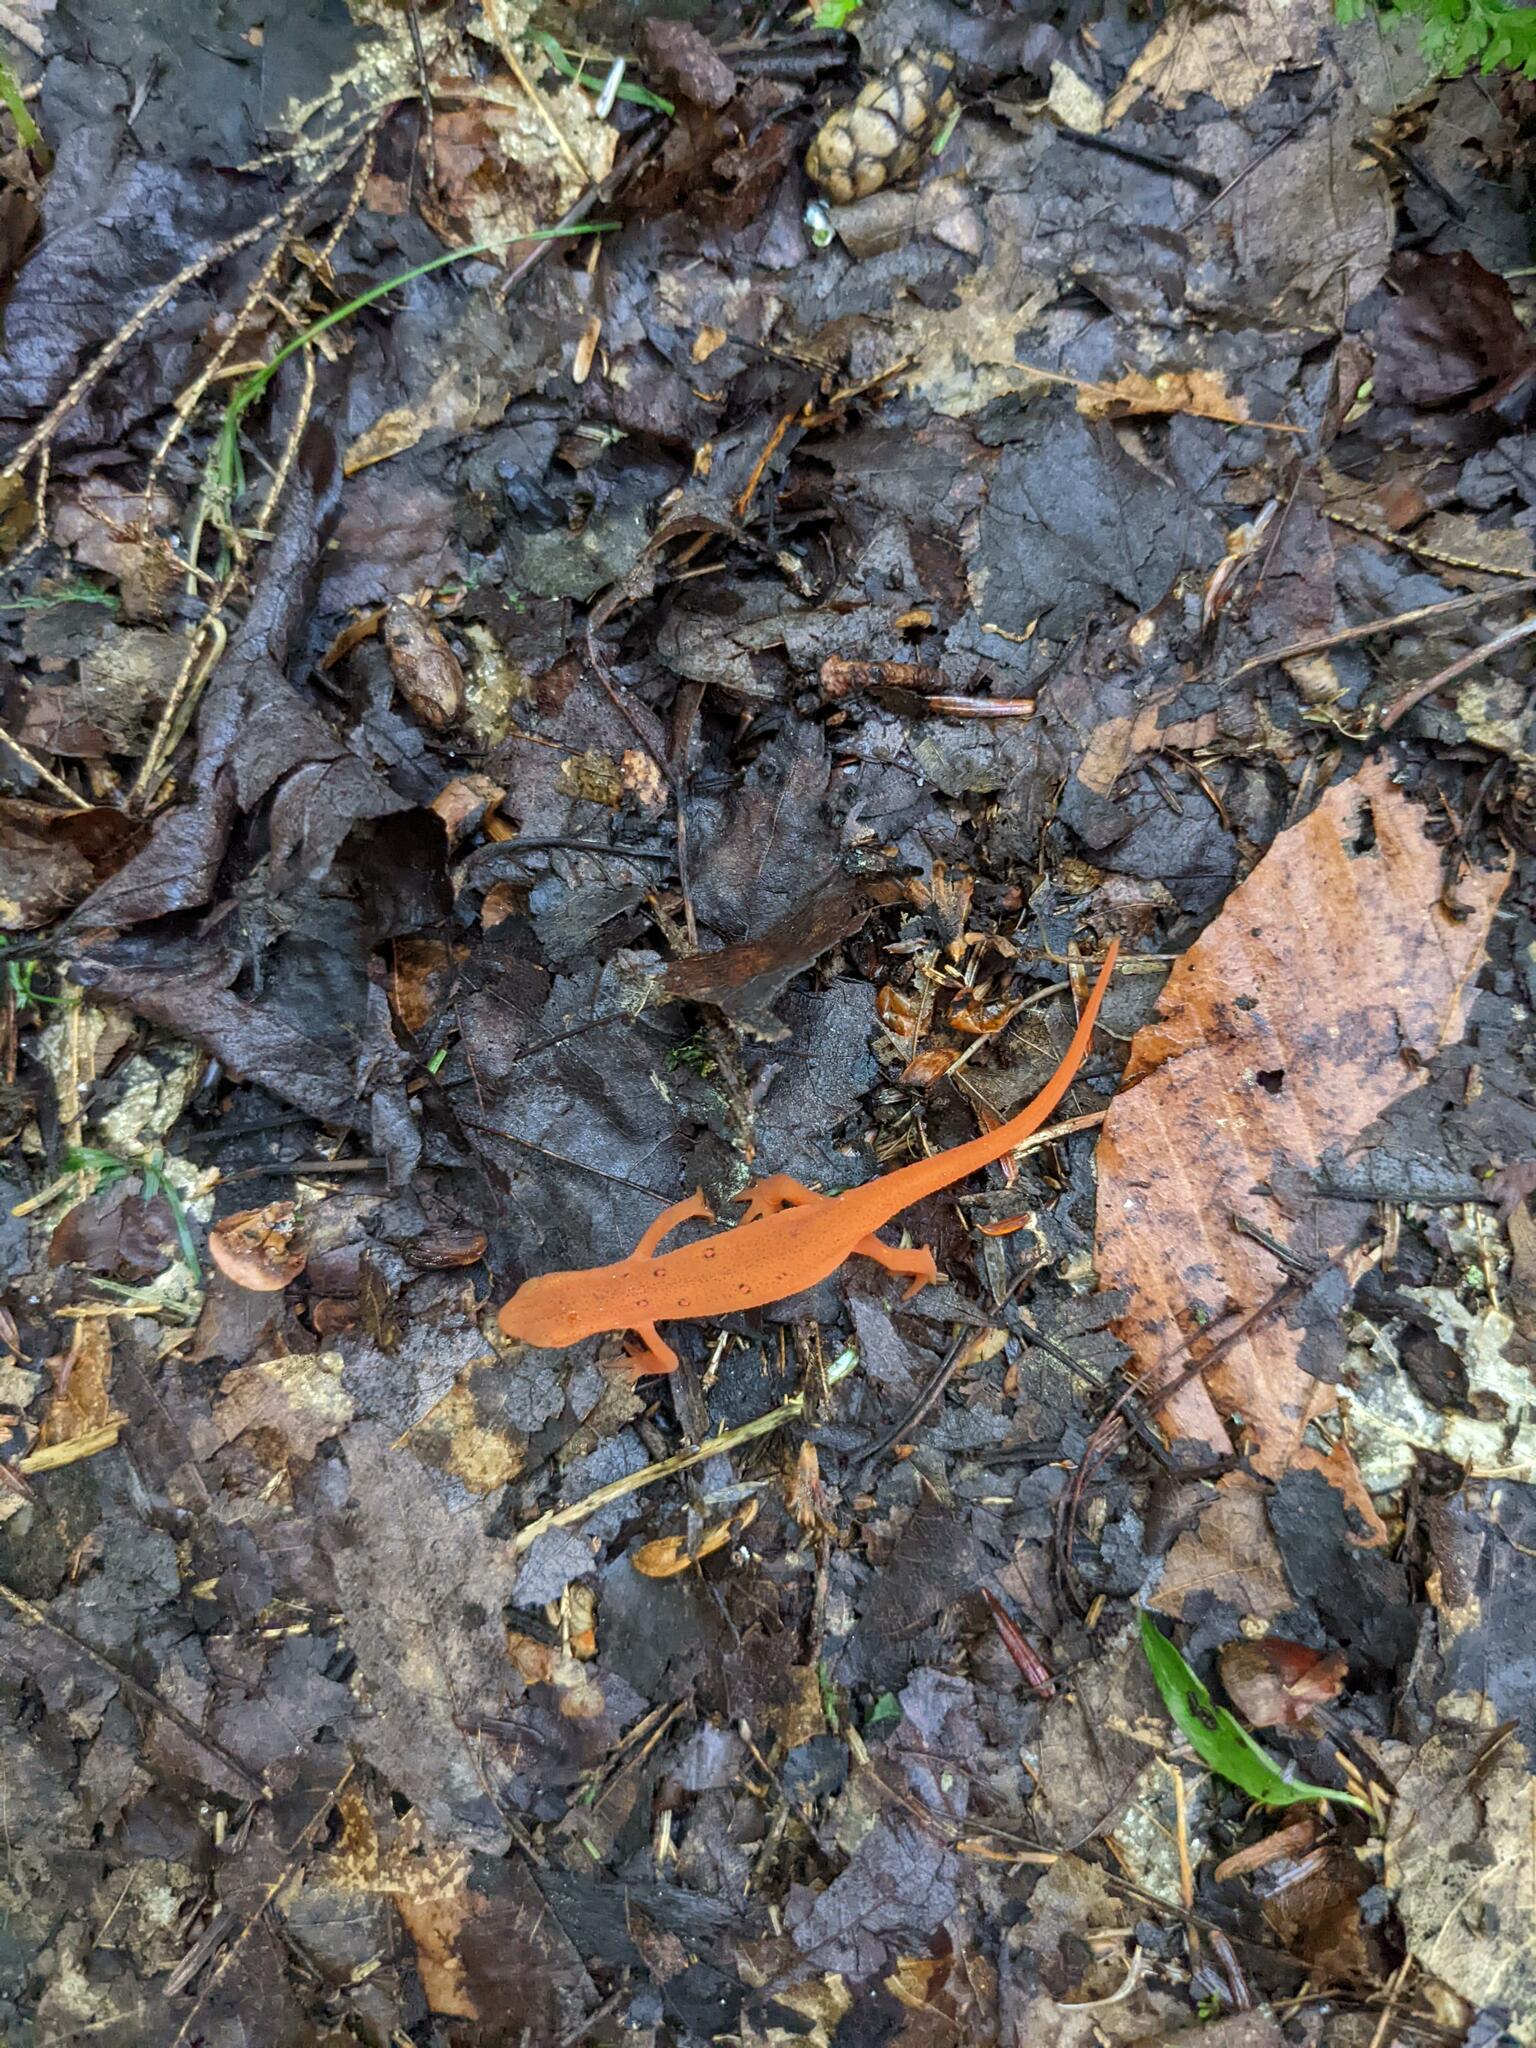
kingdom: Animalia
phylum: Chordata
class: Amphibia
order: Caudata
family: Salamandridae
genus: Notophthalmus
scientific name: Notophthalmus viridescens
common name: Eastern newt
